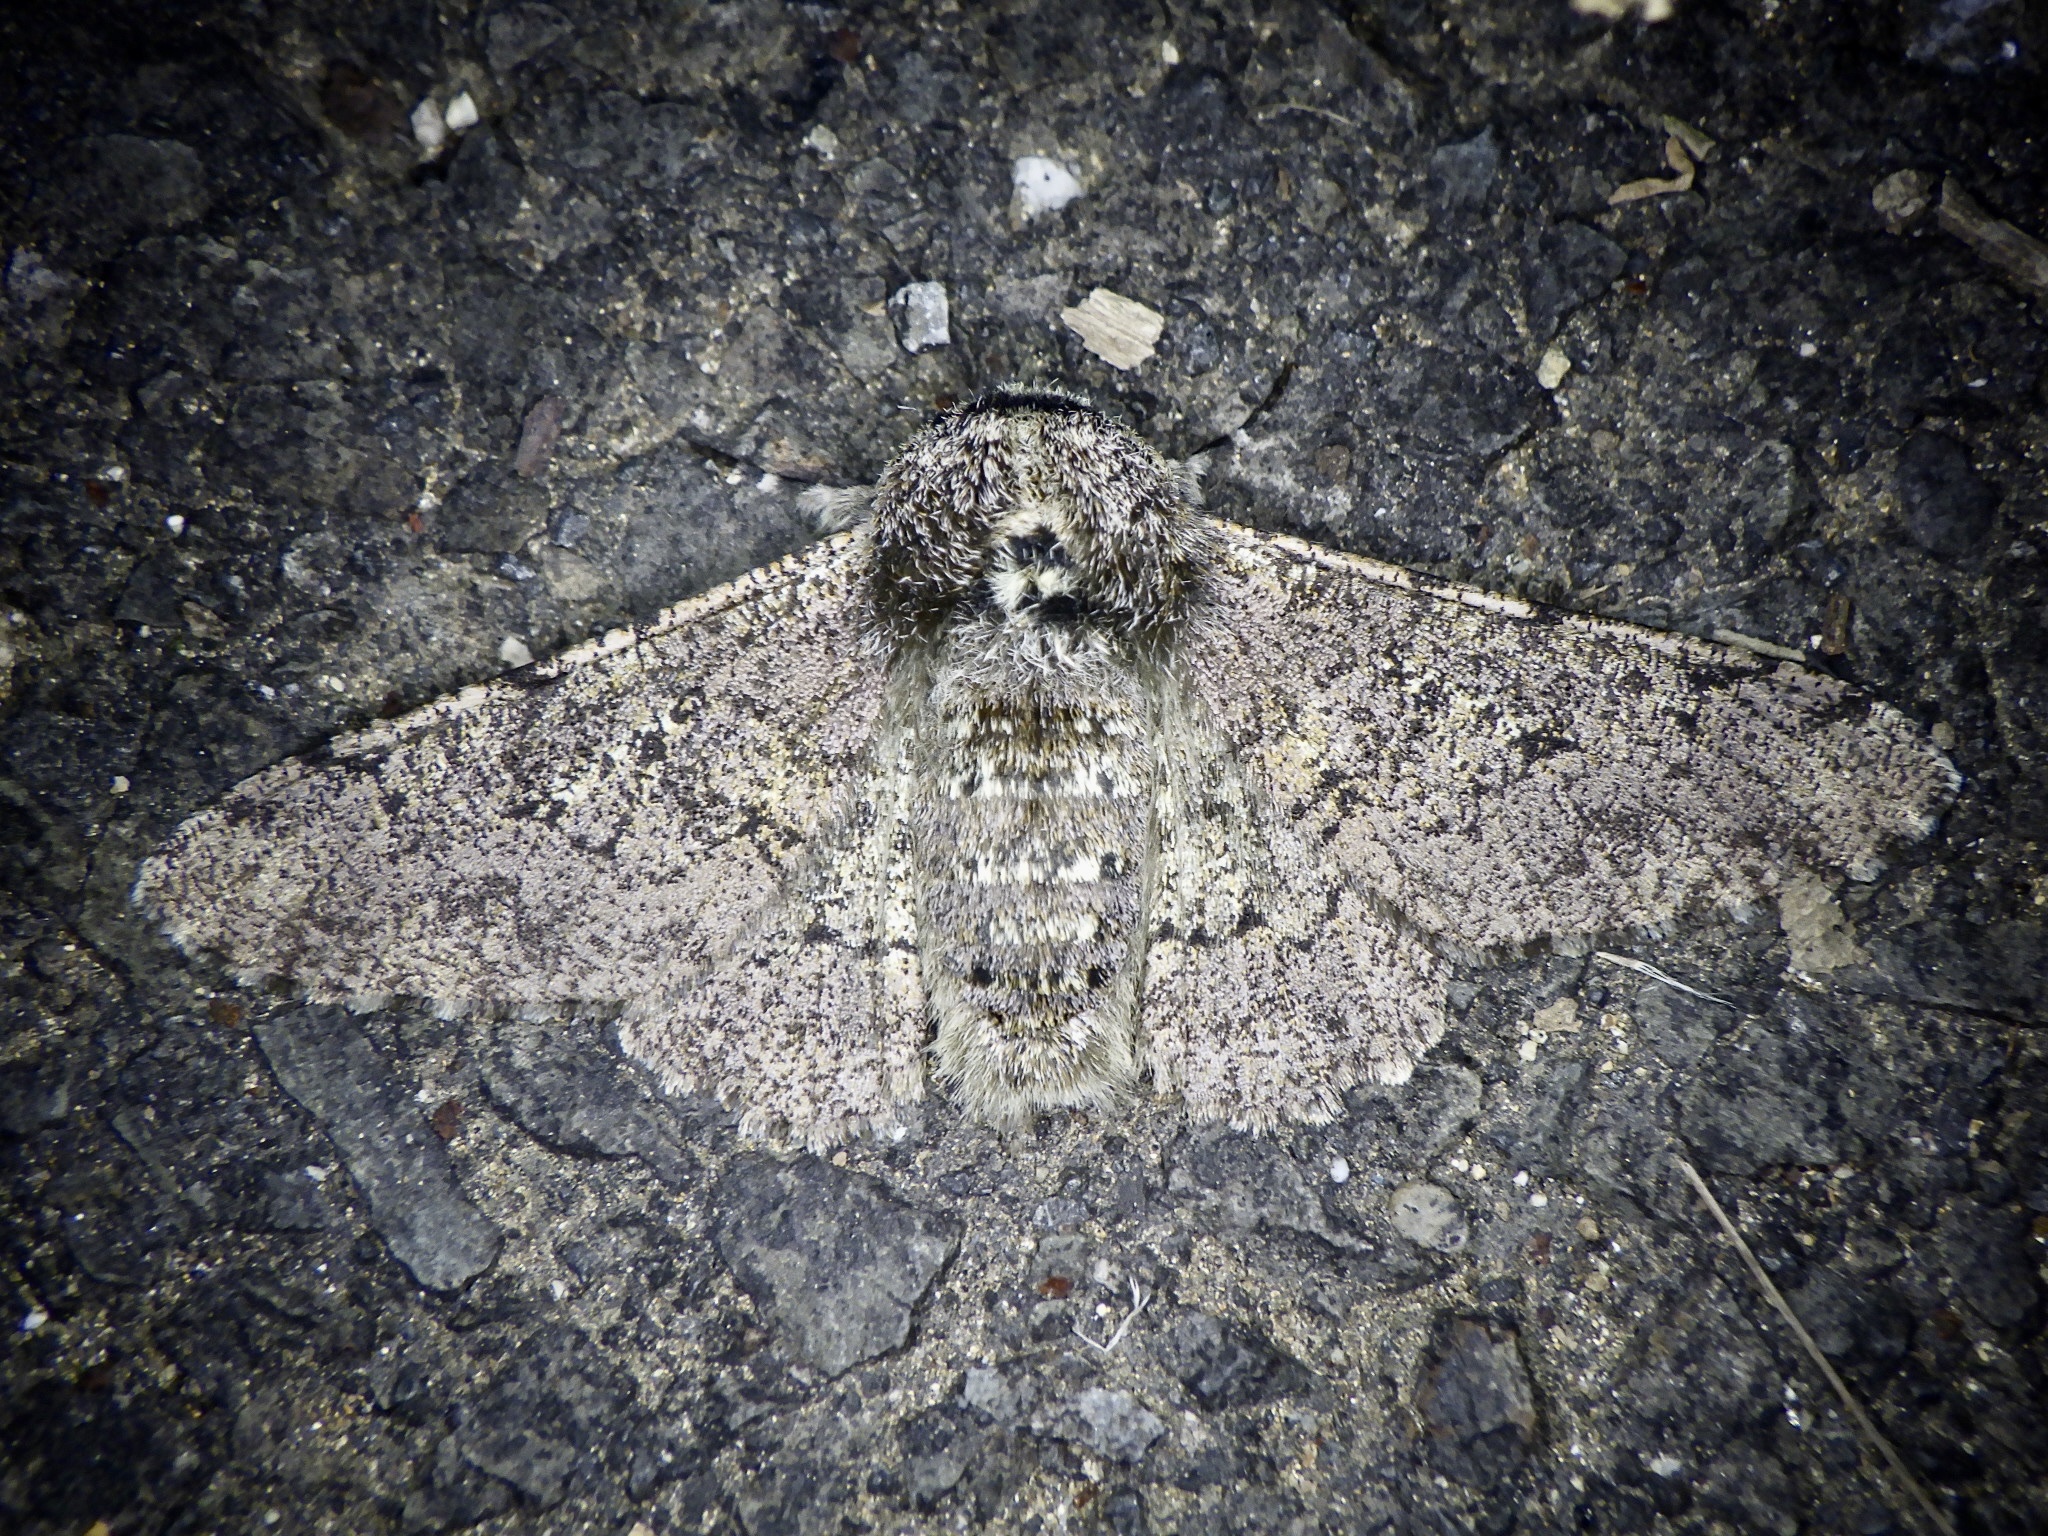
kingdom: Animalia
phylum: Arthropoda
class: Insecta
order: Lepidoptera
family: Geometridae
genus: Biston
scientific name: Biston robustum
